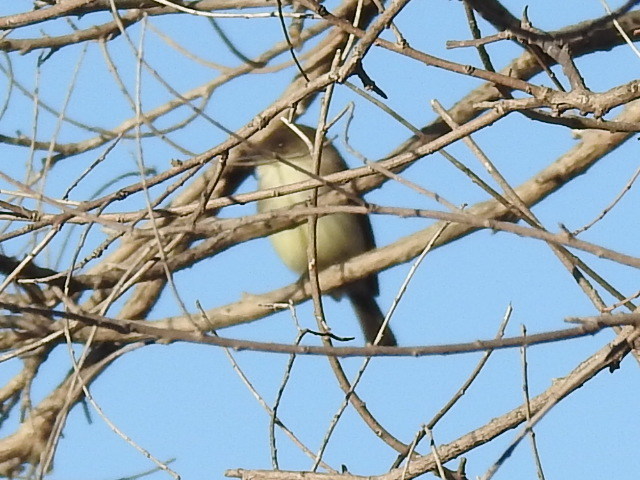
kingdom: Animalia
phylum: Chordata
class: Aves
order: Passeriformes
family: Tyrannidae
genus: Sayornis
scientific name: Sayornis phoebe
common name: Eastern phoebe
